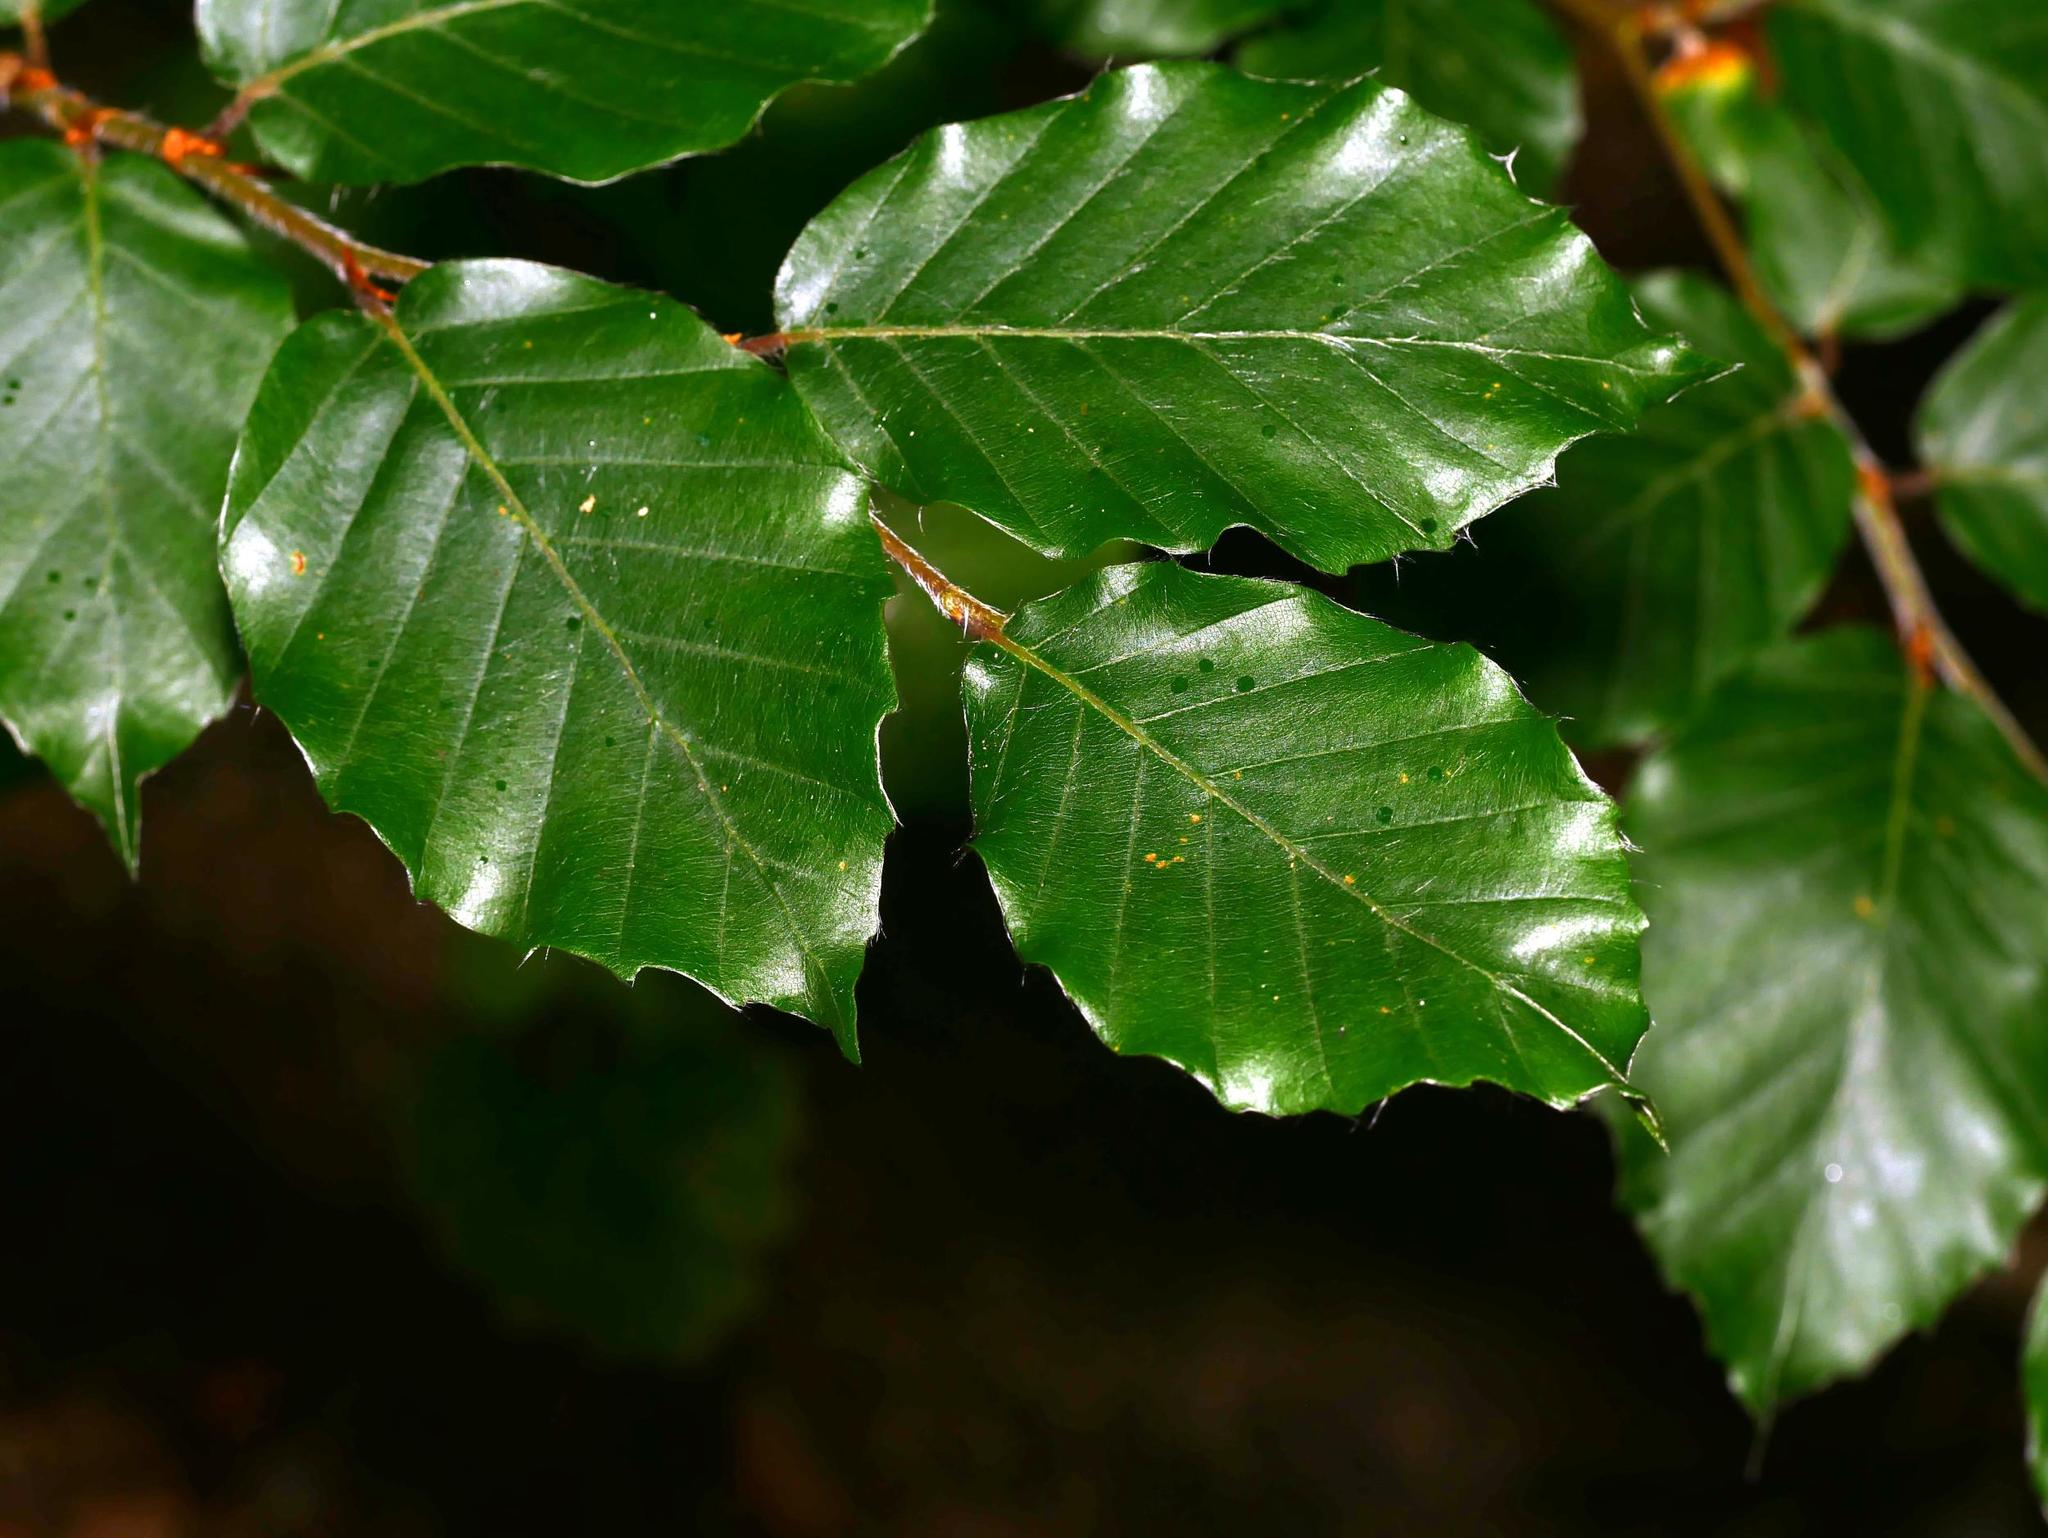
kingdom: Plantae
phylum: Tracheophyta
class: Magnoliopsida
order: Fagales
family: Fagaceae
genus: Fagus
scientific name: Fagus sylvatica
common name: Beech
